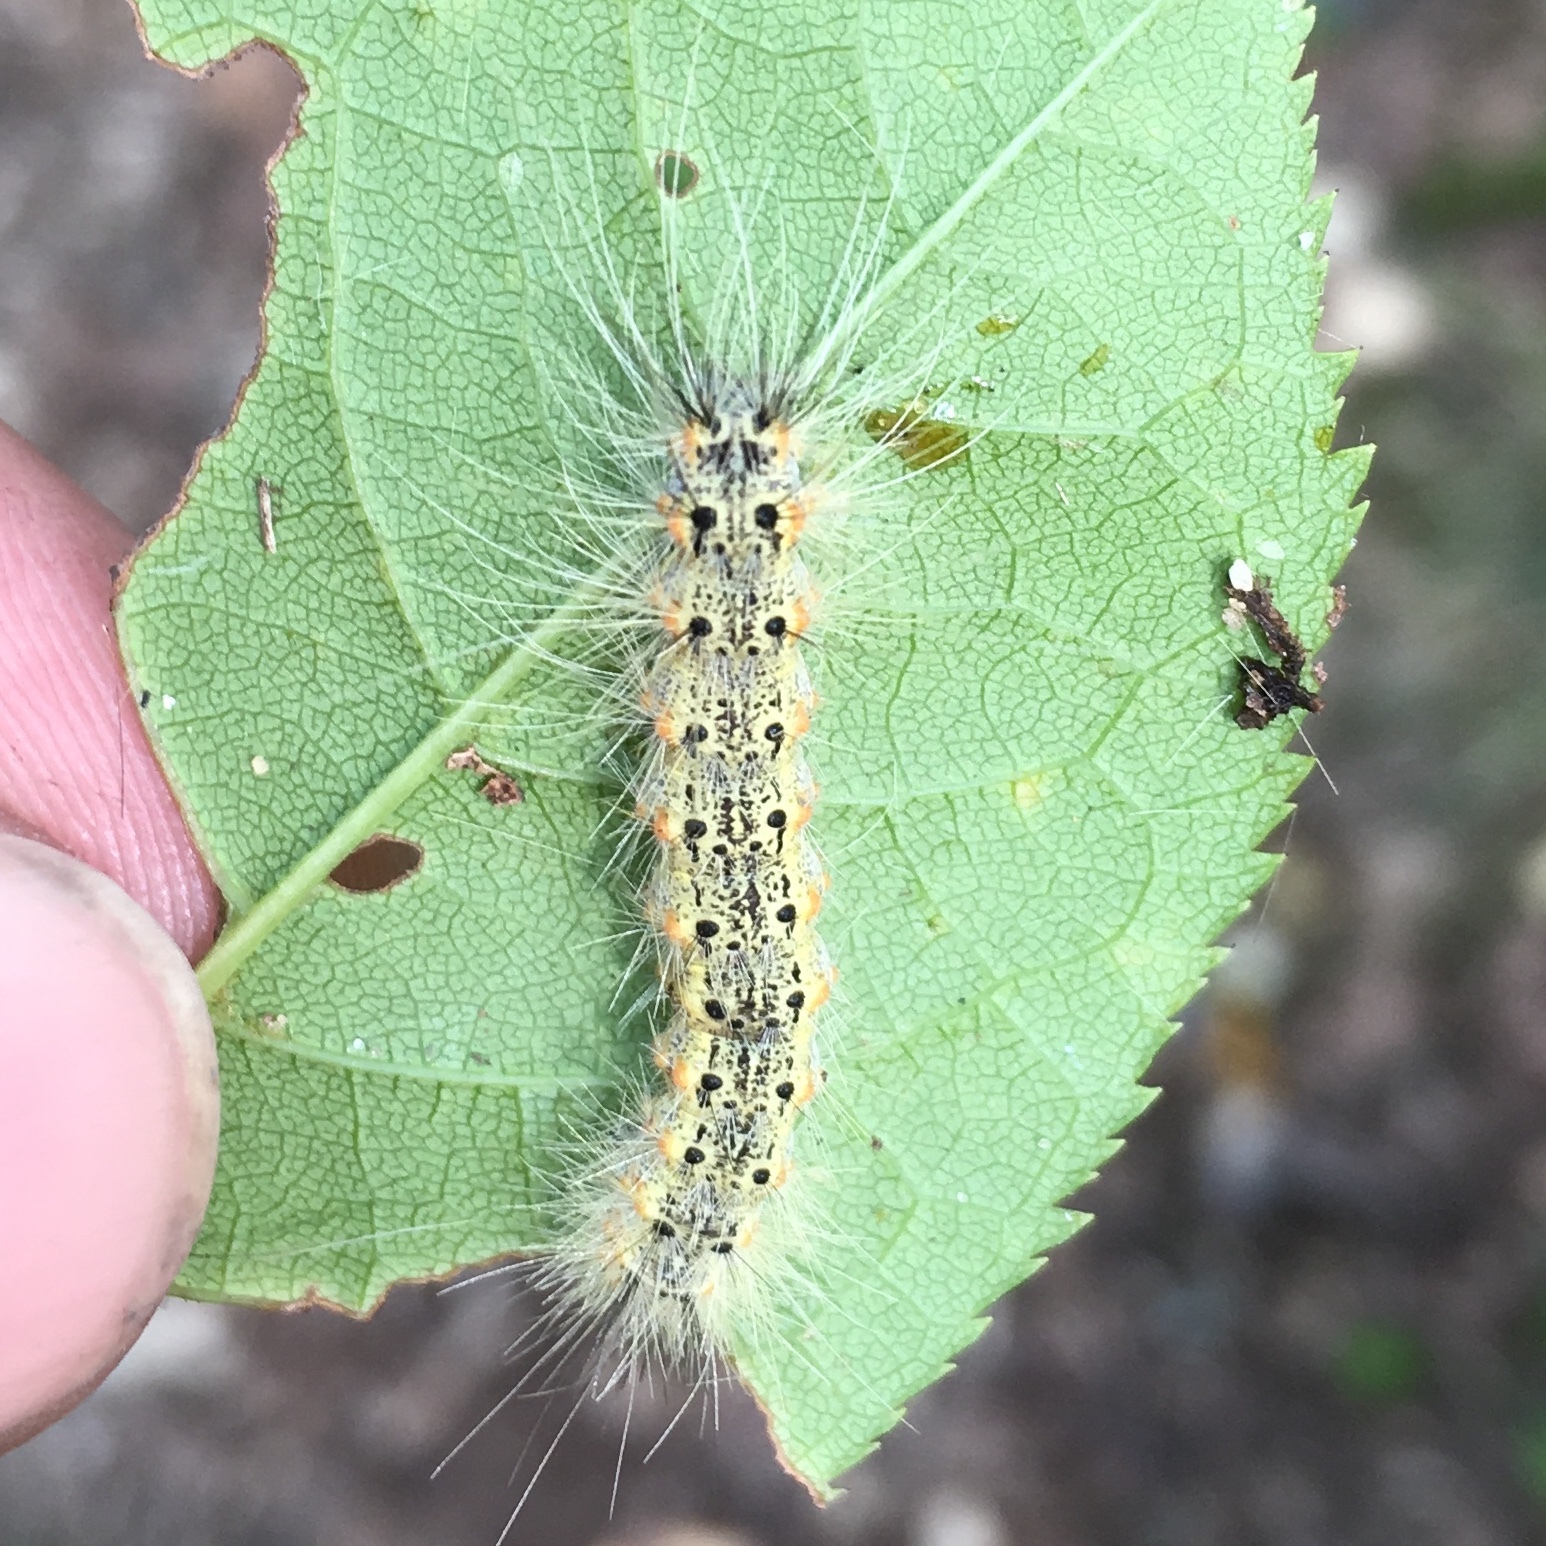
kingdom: Animalia
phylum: Arthropoda
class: Insecta
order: Lepidoptera
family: Erebidae
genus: Hyphantria
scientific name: Hyphantria cunea
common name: American white moth
